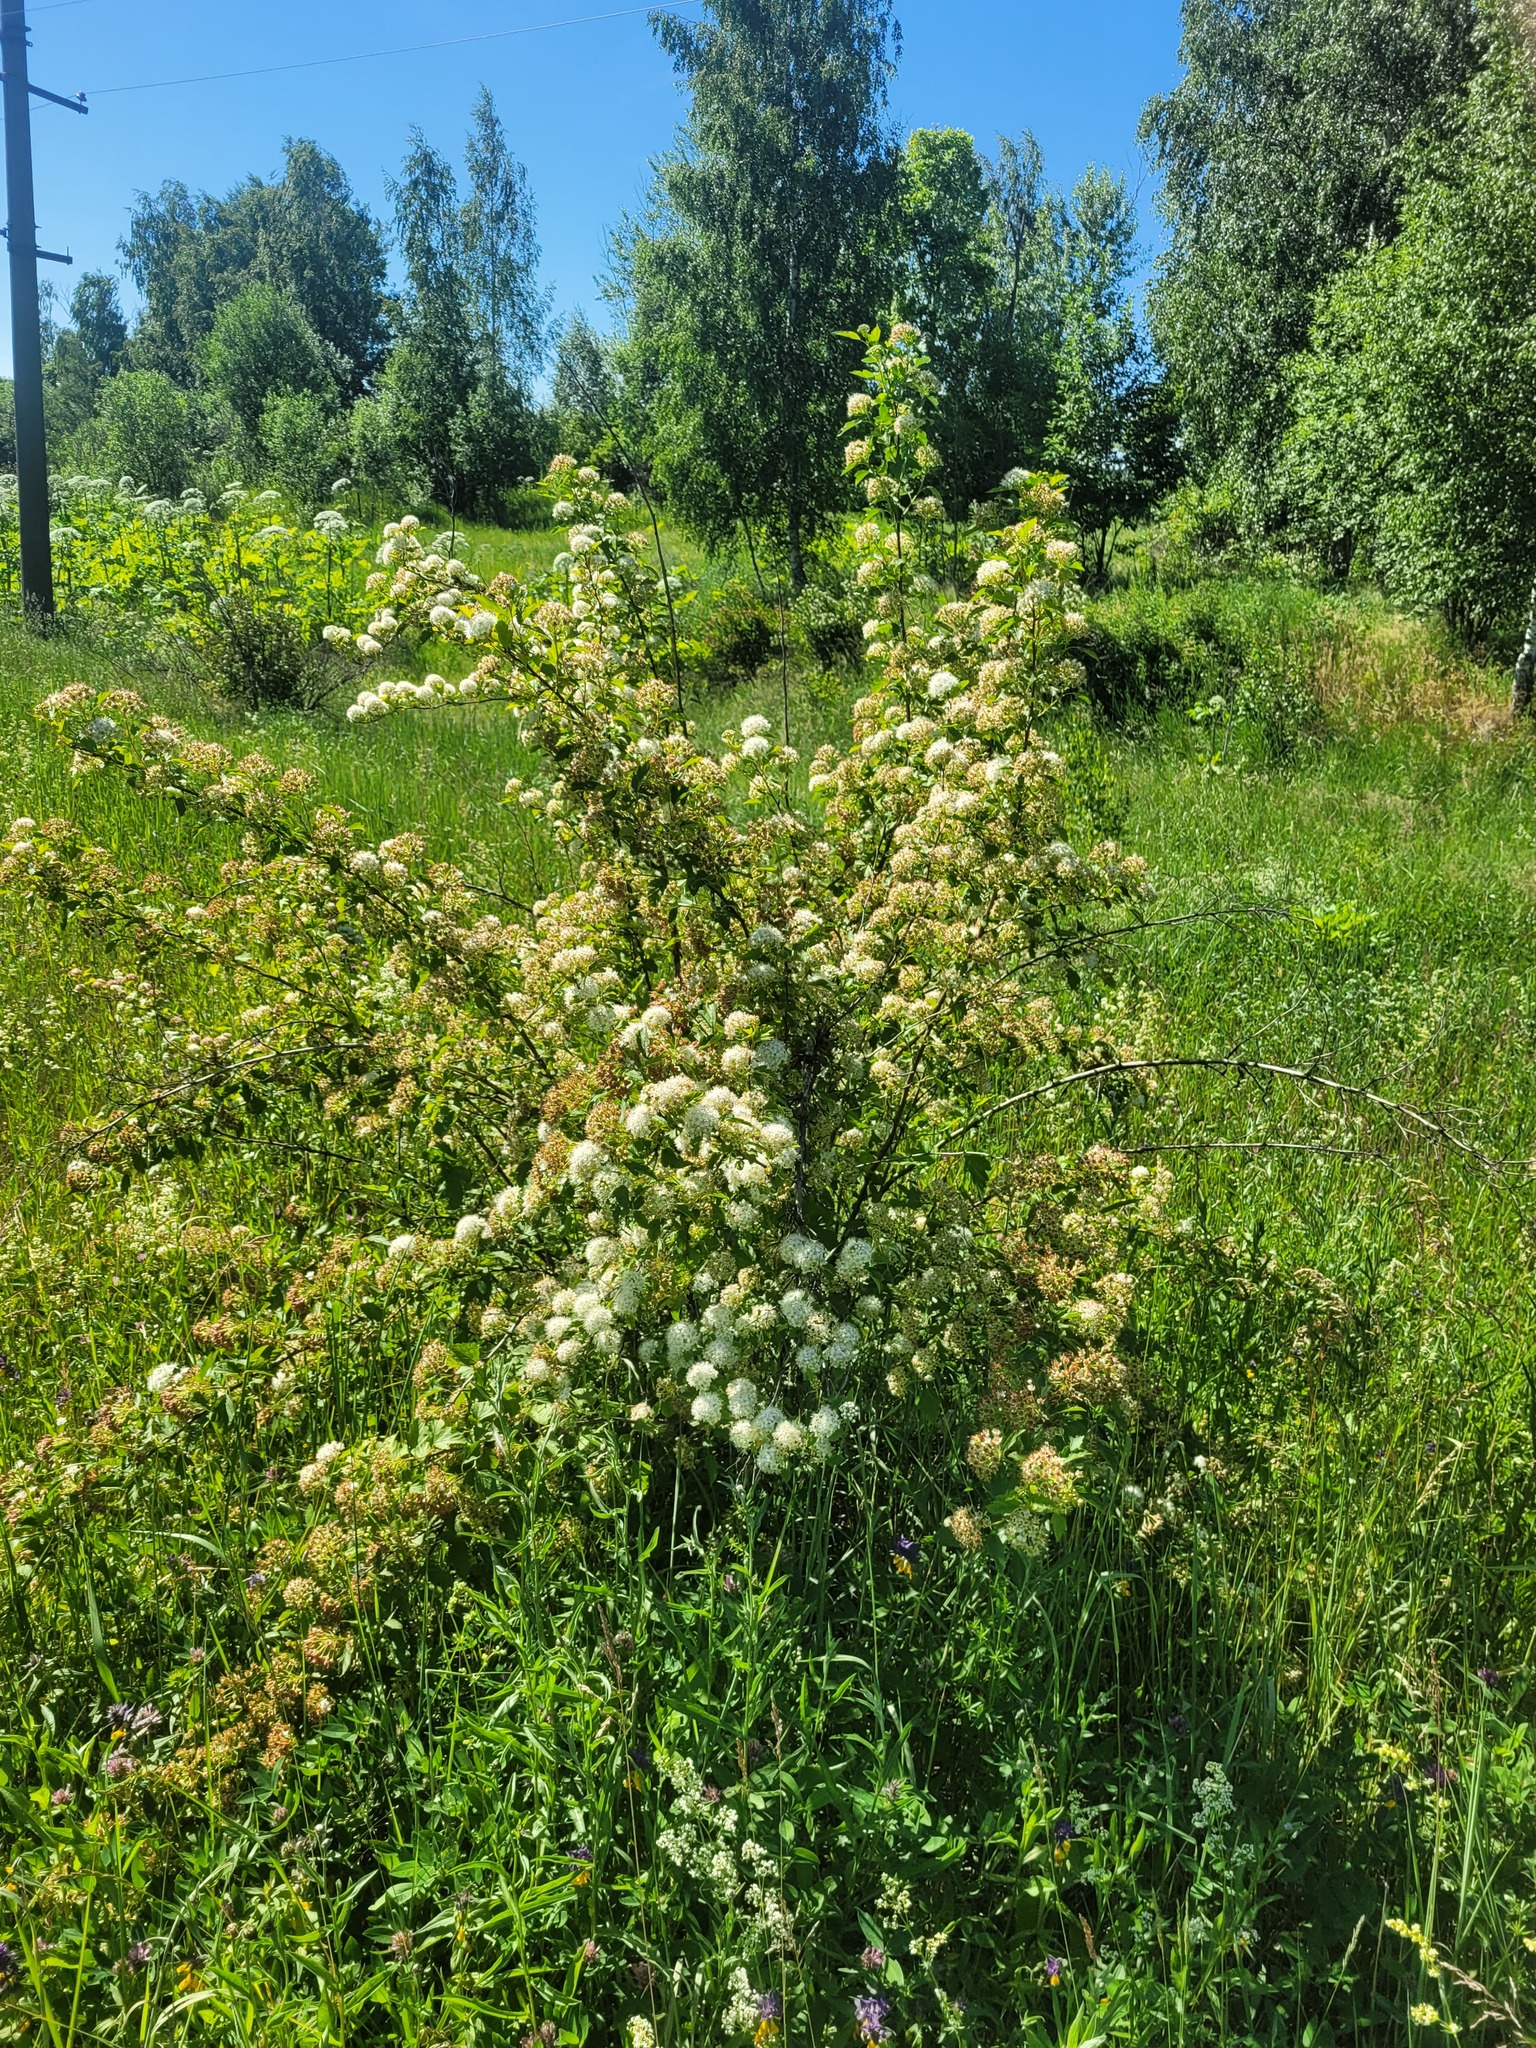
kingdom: Plantae
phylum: Tracheophyta
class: Magnoliopsida
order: Rosales
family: Rosaceae
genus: Physocarpus
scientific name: Physocarpus opulifolius
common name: Ninebark
